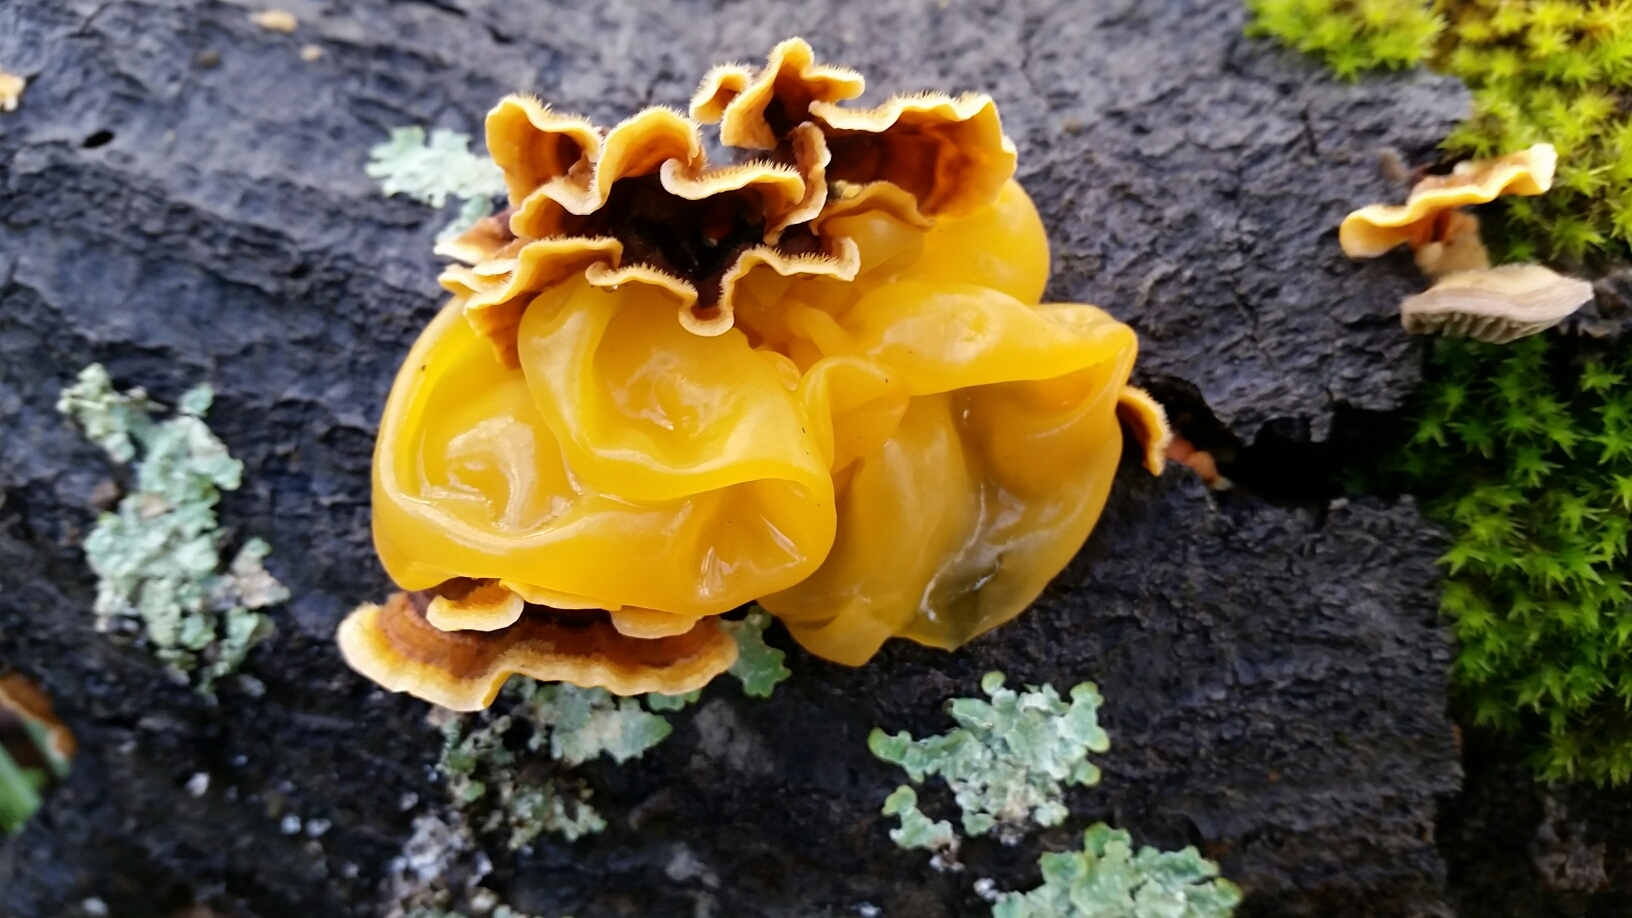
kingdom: Fungi
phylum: Basidiomycota
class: Tremellomycetes
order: Tremellales
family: Naemateliaceae
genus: Naematelia
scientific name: Naematelia aurantia
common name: Golden ear
